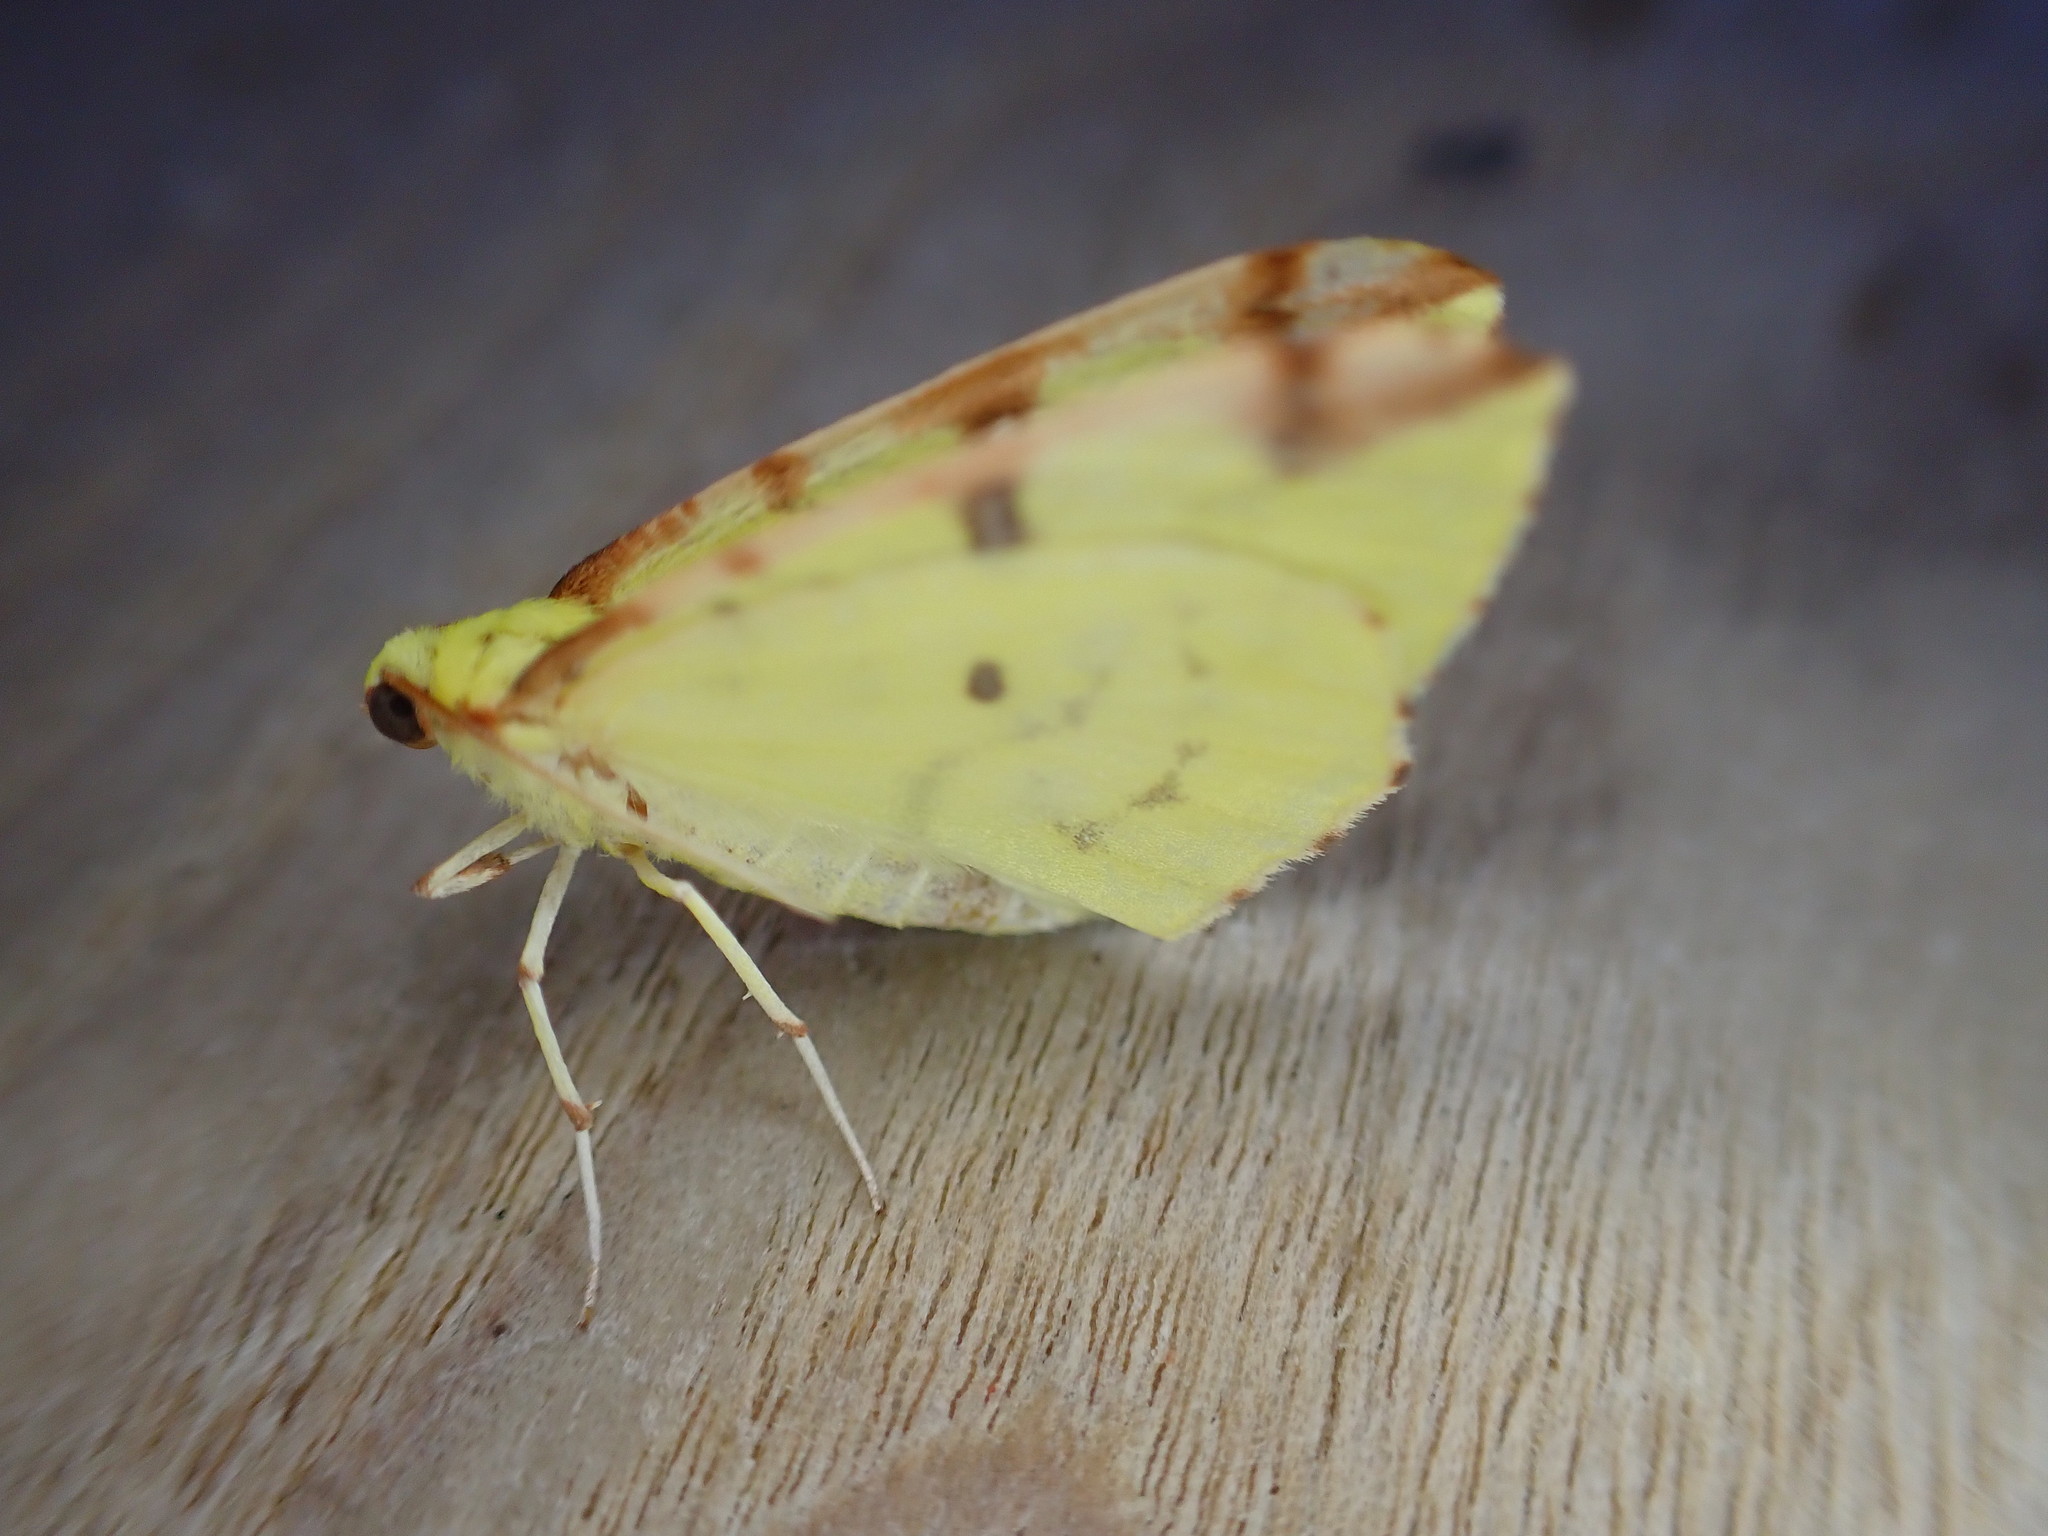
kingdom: Animalia
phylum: Arthropoda
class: Insecta
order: Lepidoptera
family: Geometridae
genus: Opisthograptis
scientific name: Opisthograptis luteolata
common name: Brimstone moth
